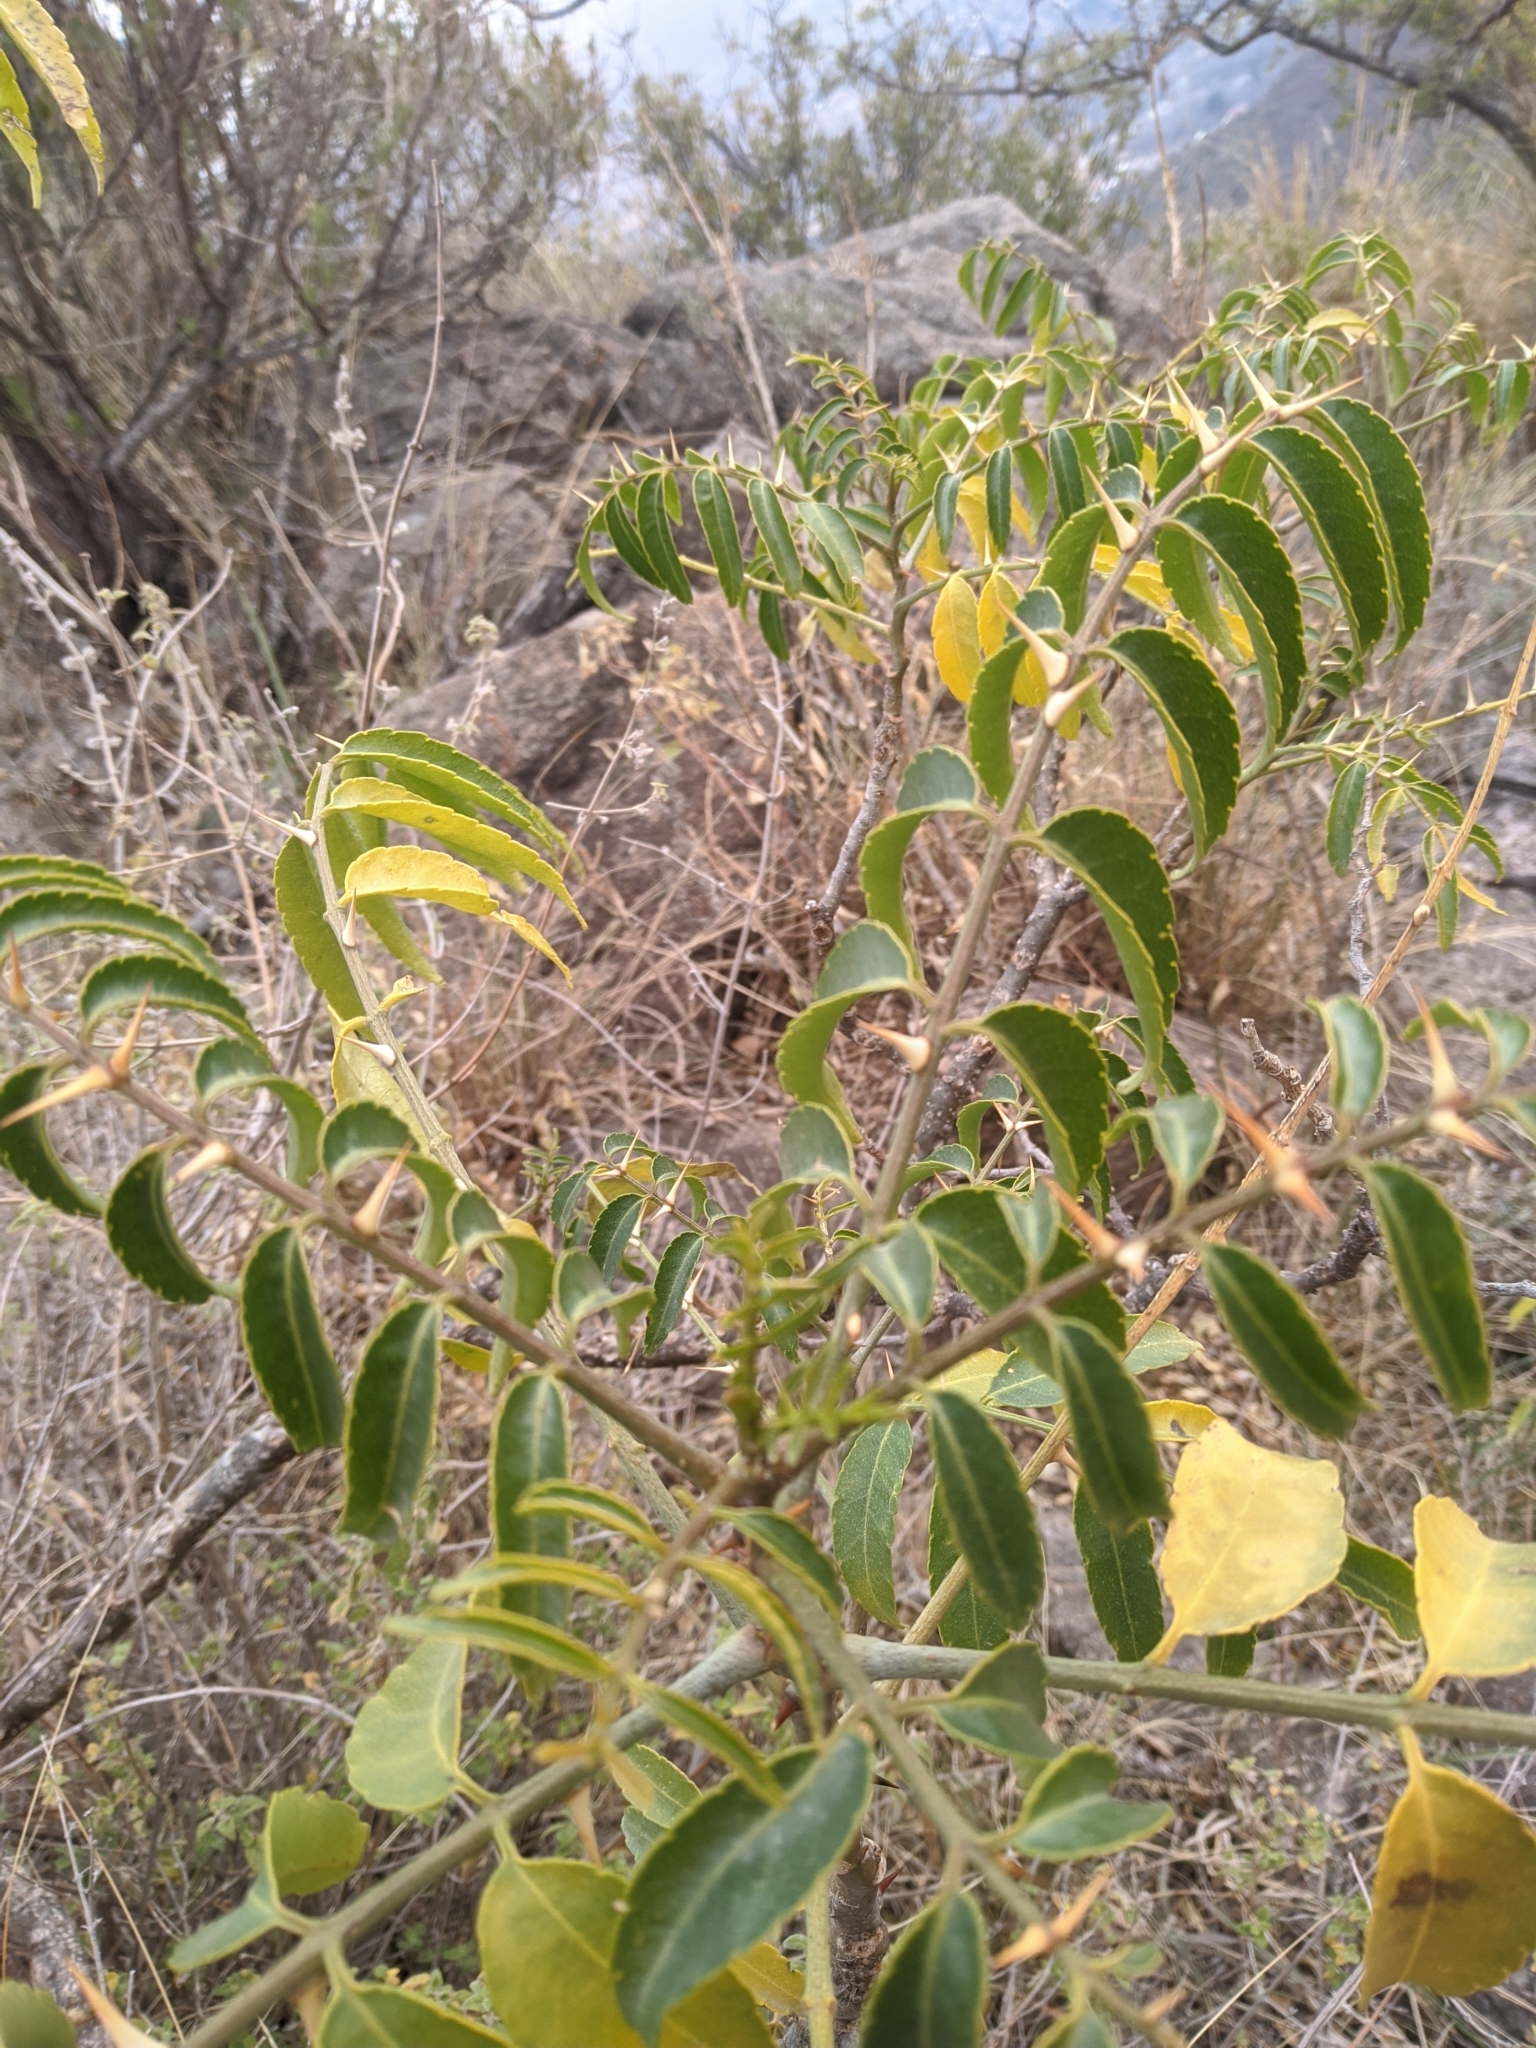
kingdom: Plantae
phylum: Tracheophyta
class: Magnoliopsida
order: Sapindales
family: Rutaceae
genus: Zanthoxylum
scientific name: Zanthoxylum coco
